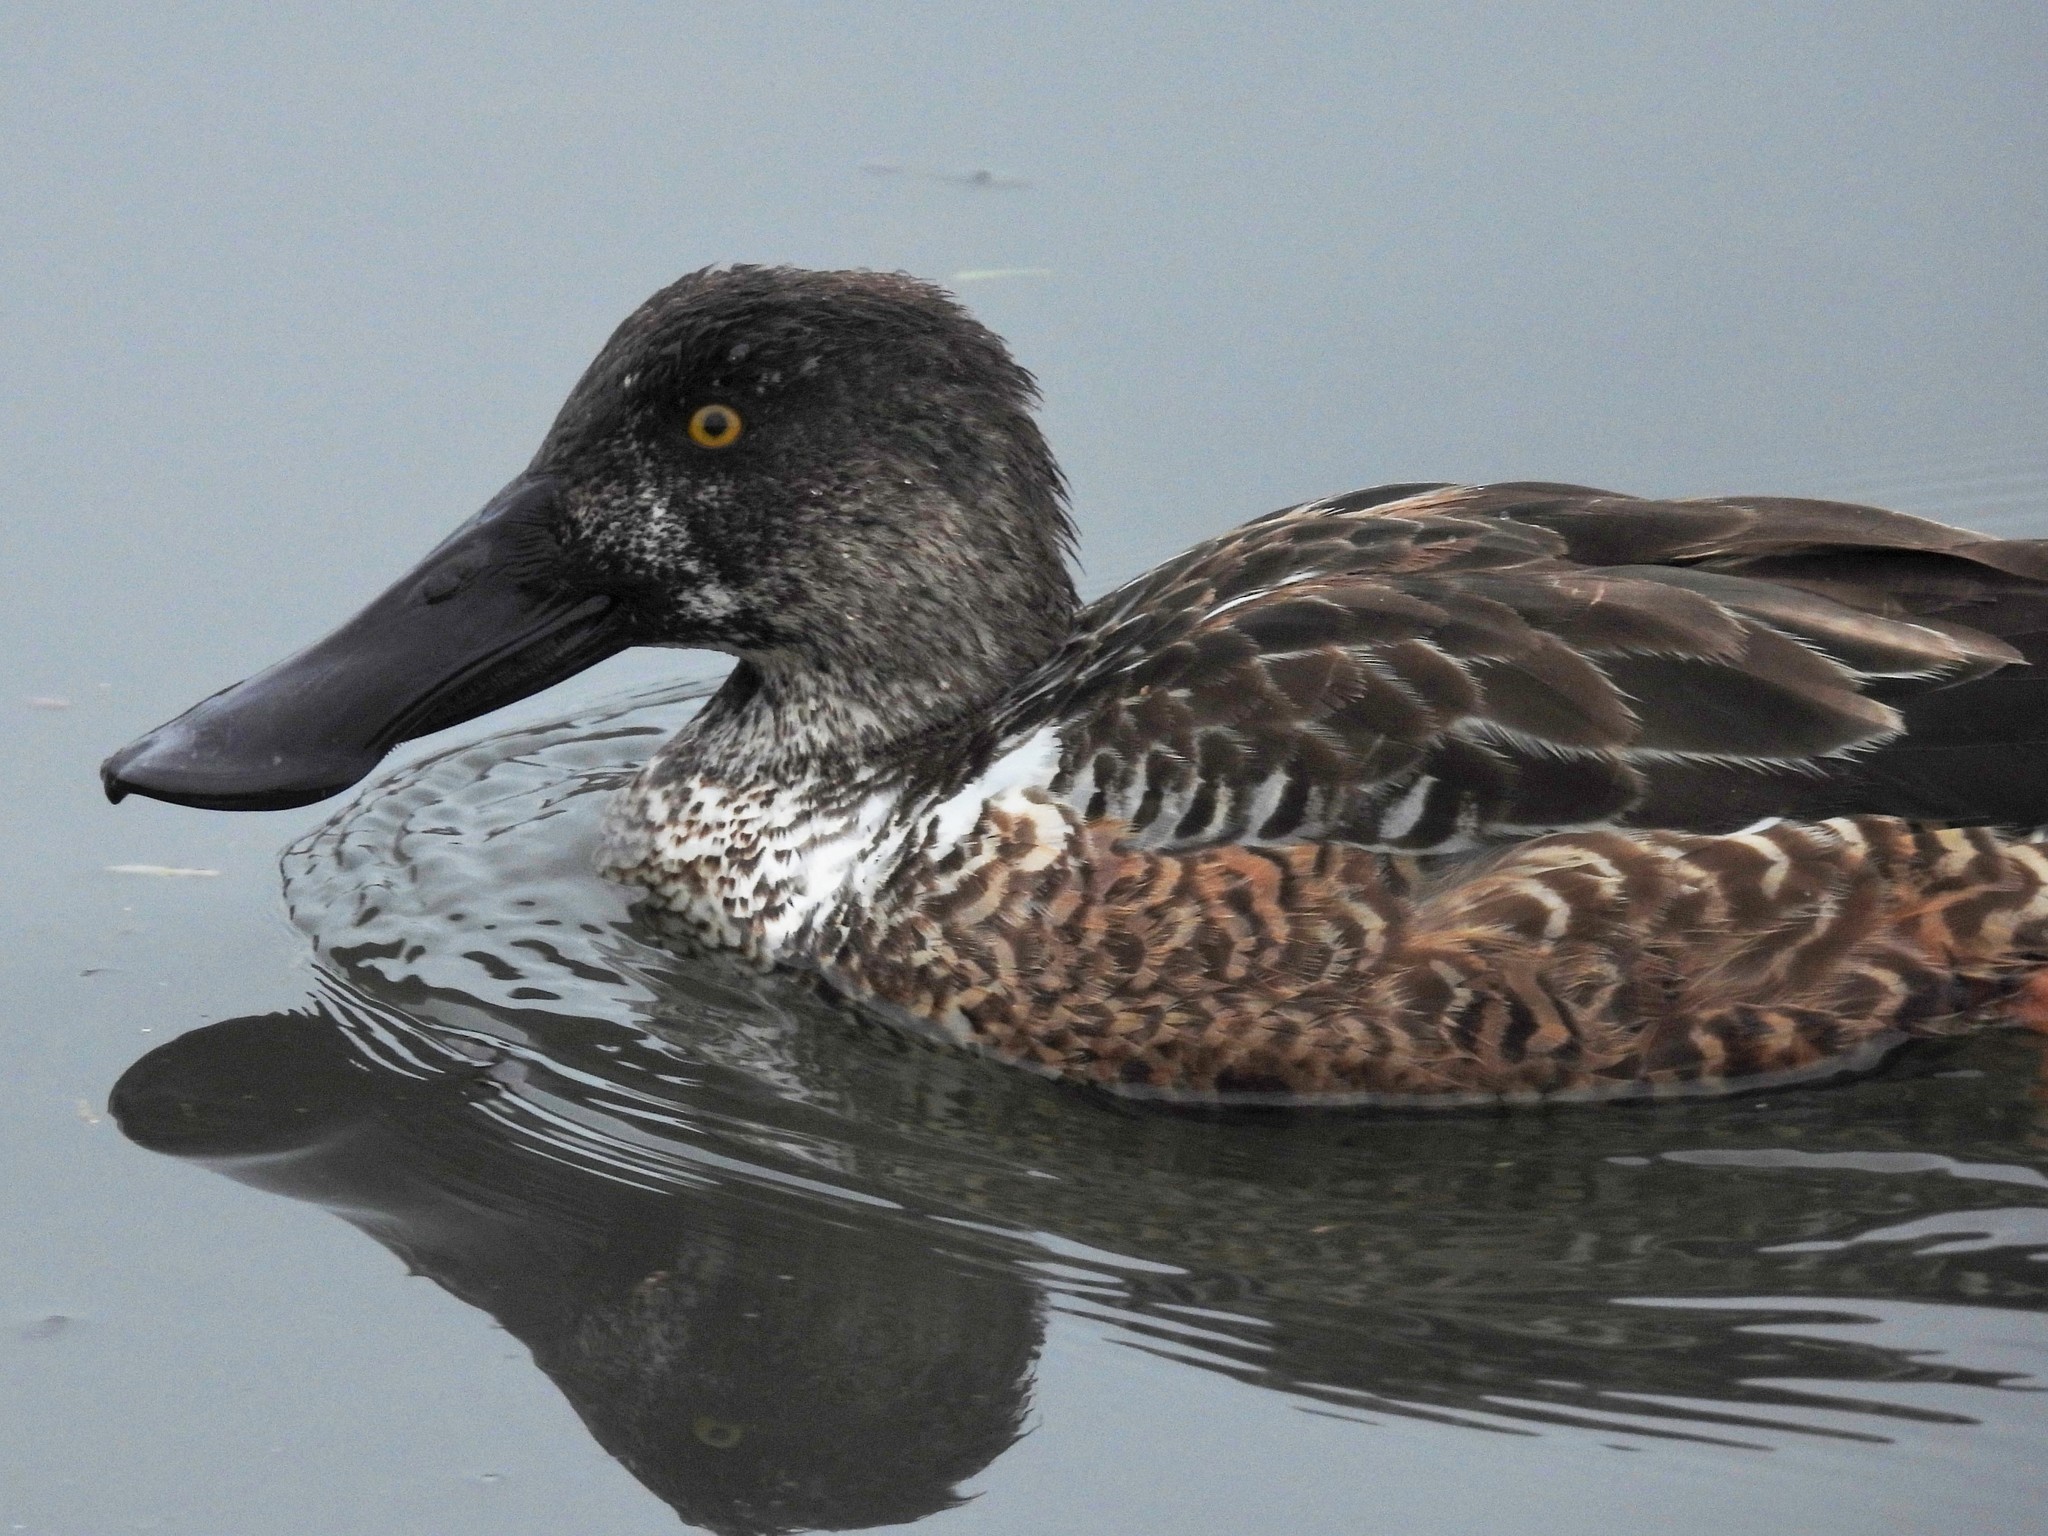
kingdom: Animalia
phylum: Chordata
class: Aves
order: Anseriformes
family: Anatidae
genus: Spatula
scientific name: Spatula clypeata
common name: Northern shoveler
